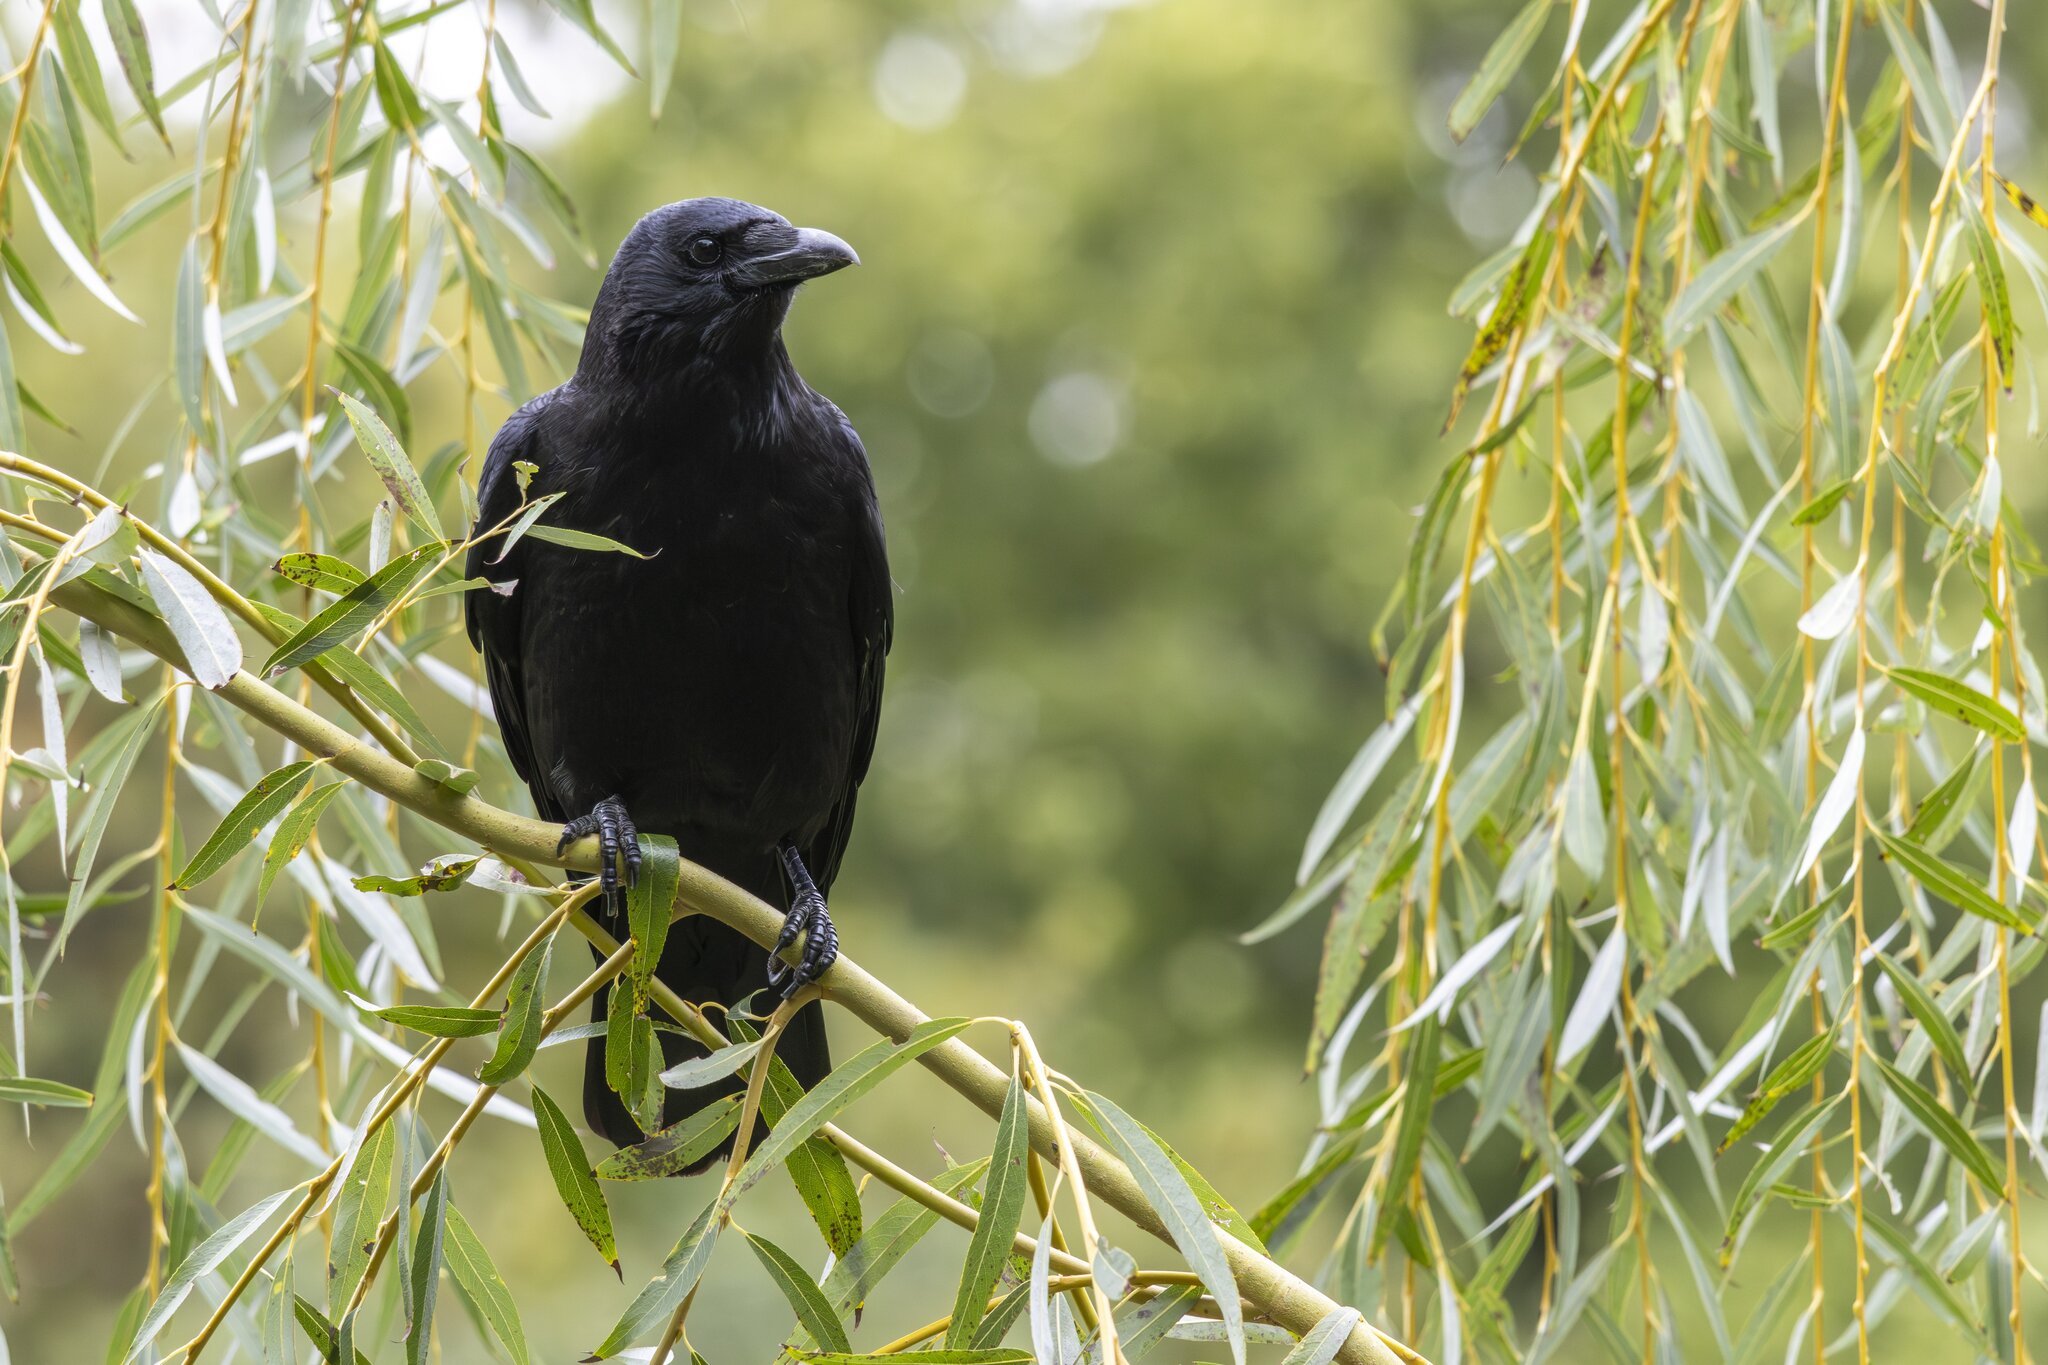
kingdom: Animalia
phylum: Chordata
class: Aves
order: Passeriformes
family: Corvidae
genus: Corvus
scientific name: Corvus corone
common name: Carrion crow
